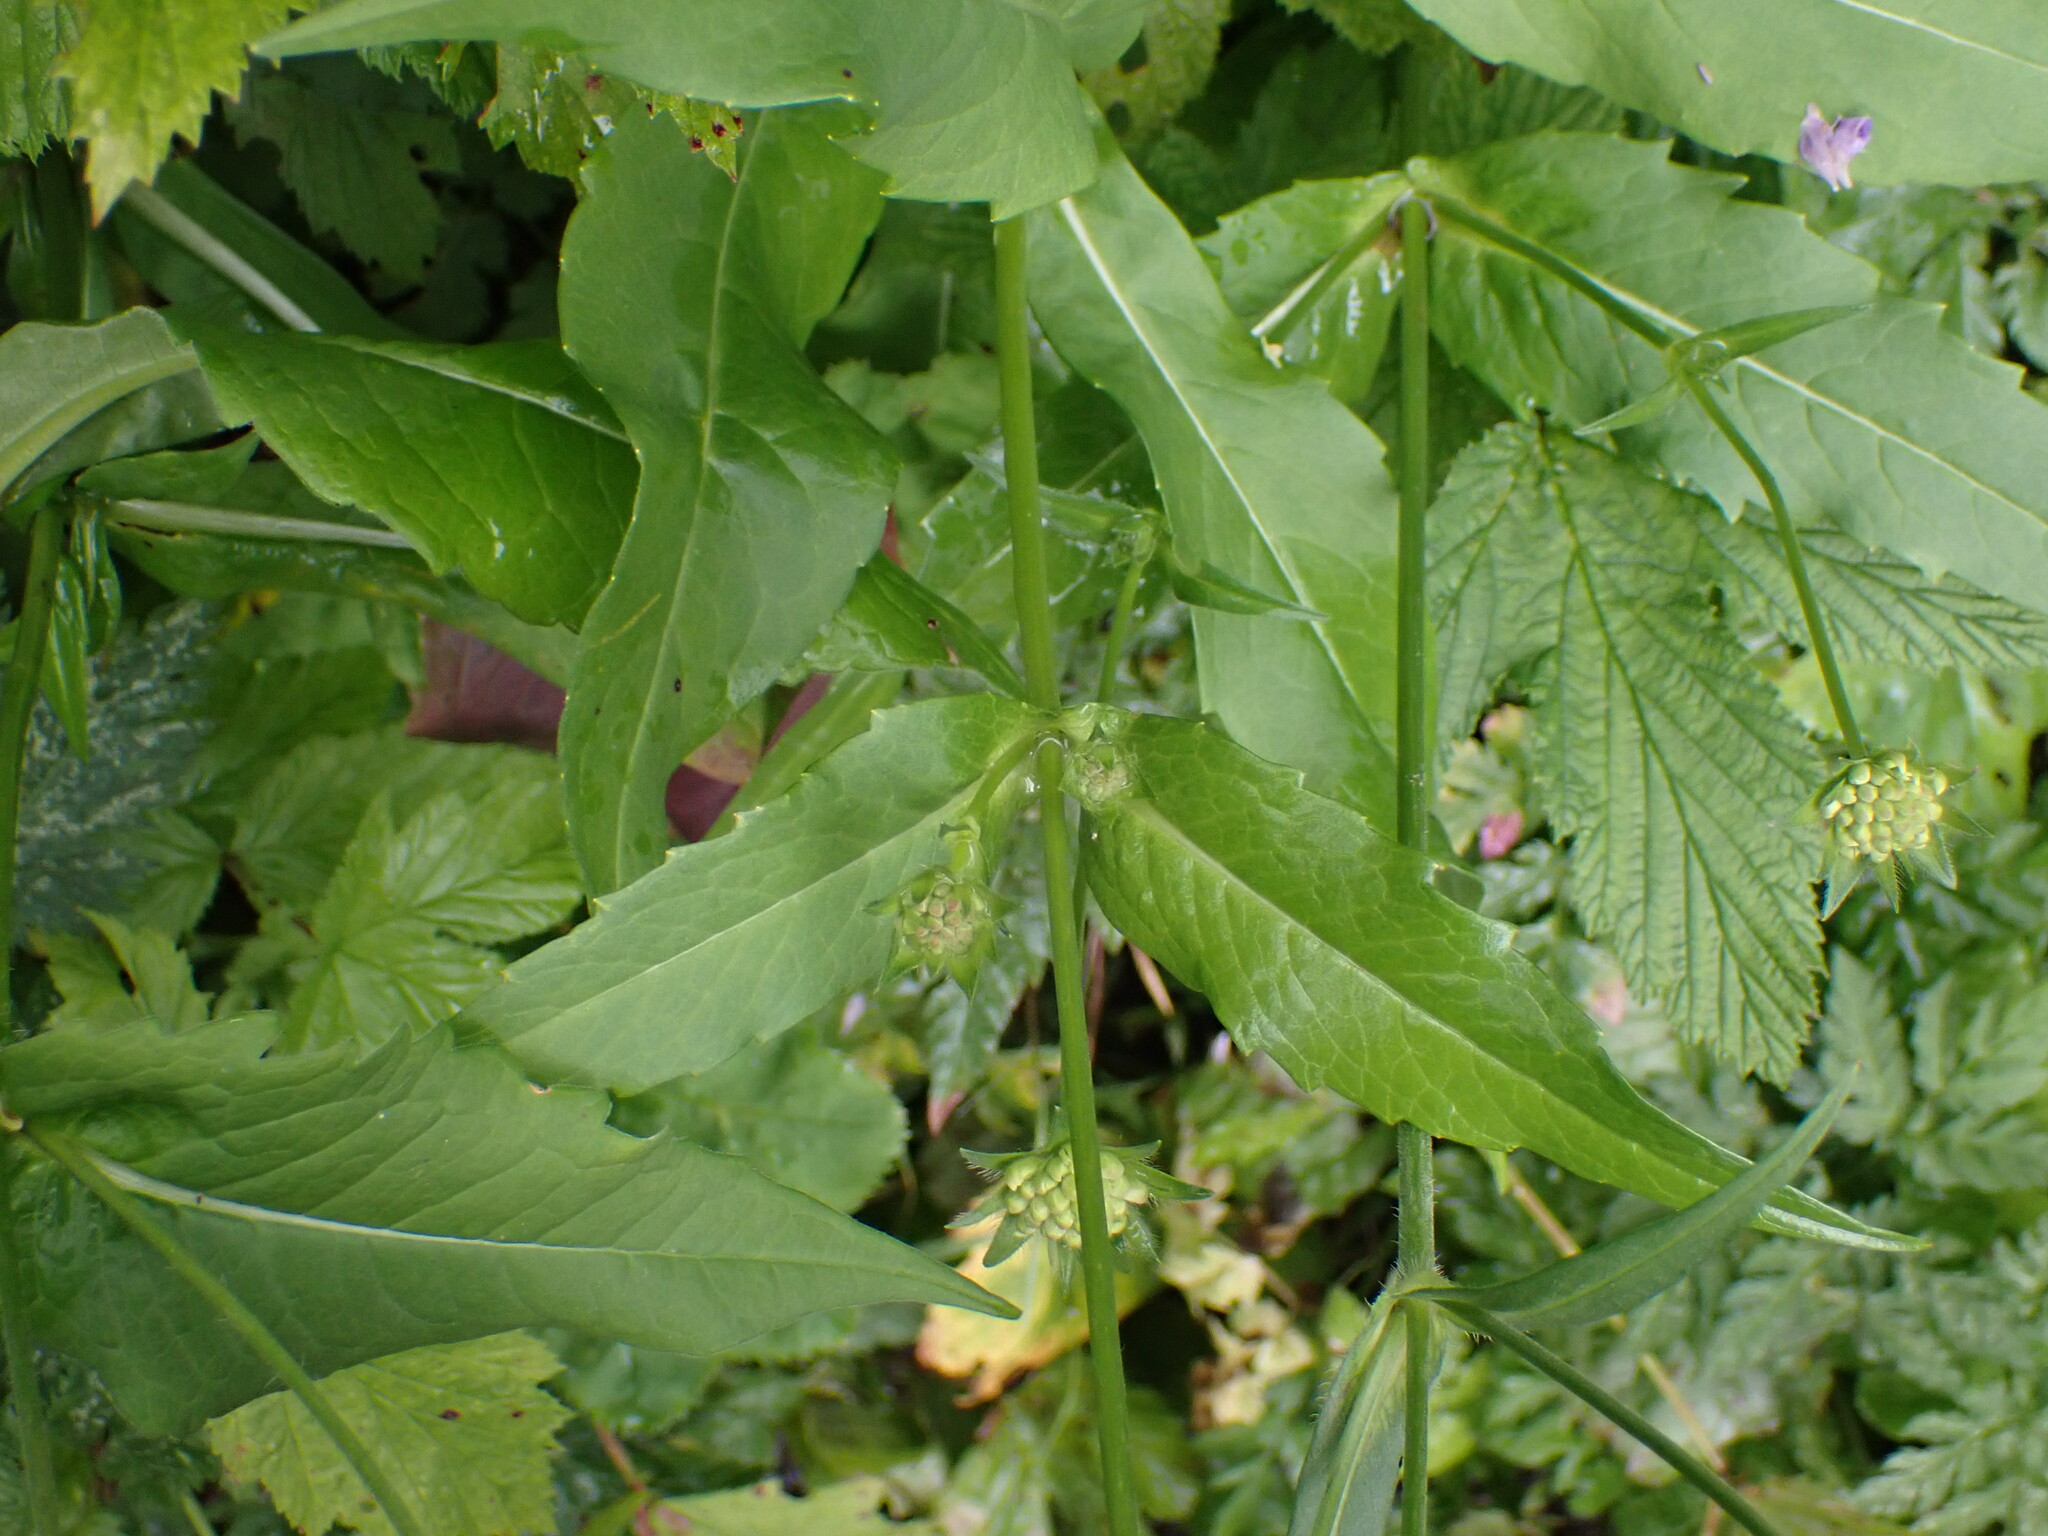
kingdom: Plantae
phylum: Tracheophyta
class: Magnoliopsida
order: Dipsacales
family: Caprifoliaceae
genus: Knautia
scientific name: Knautia dipsacifolia
